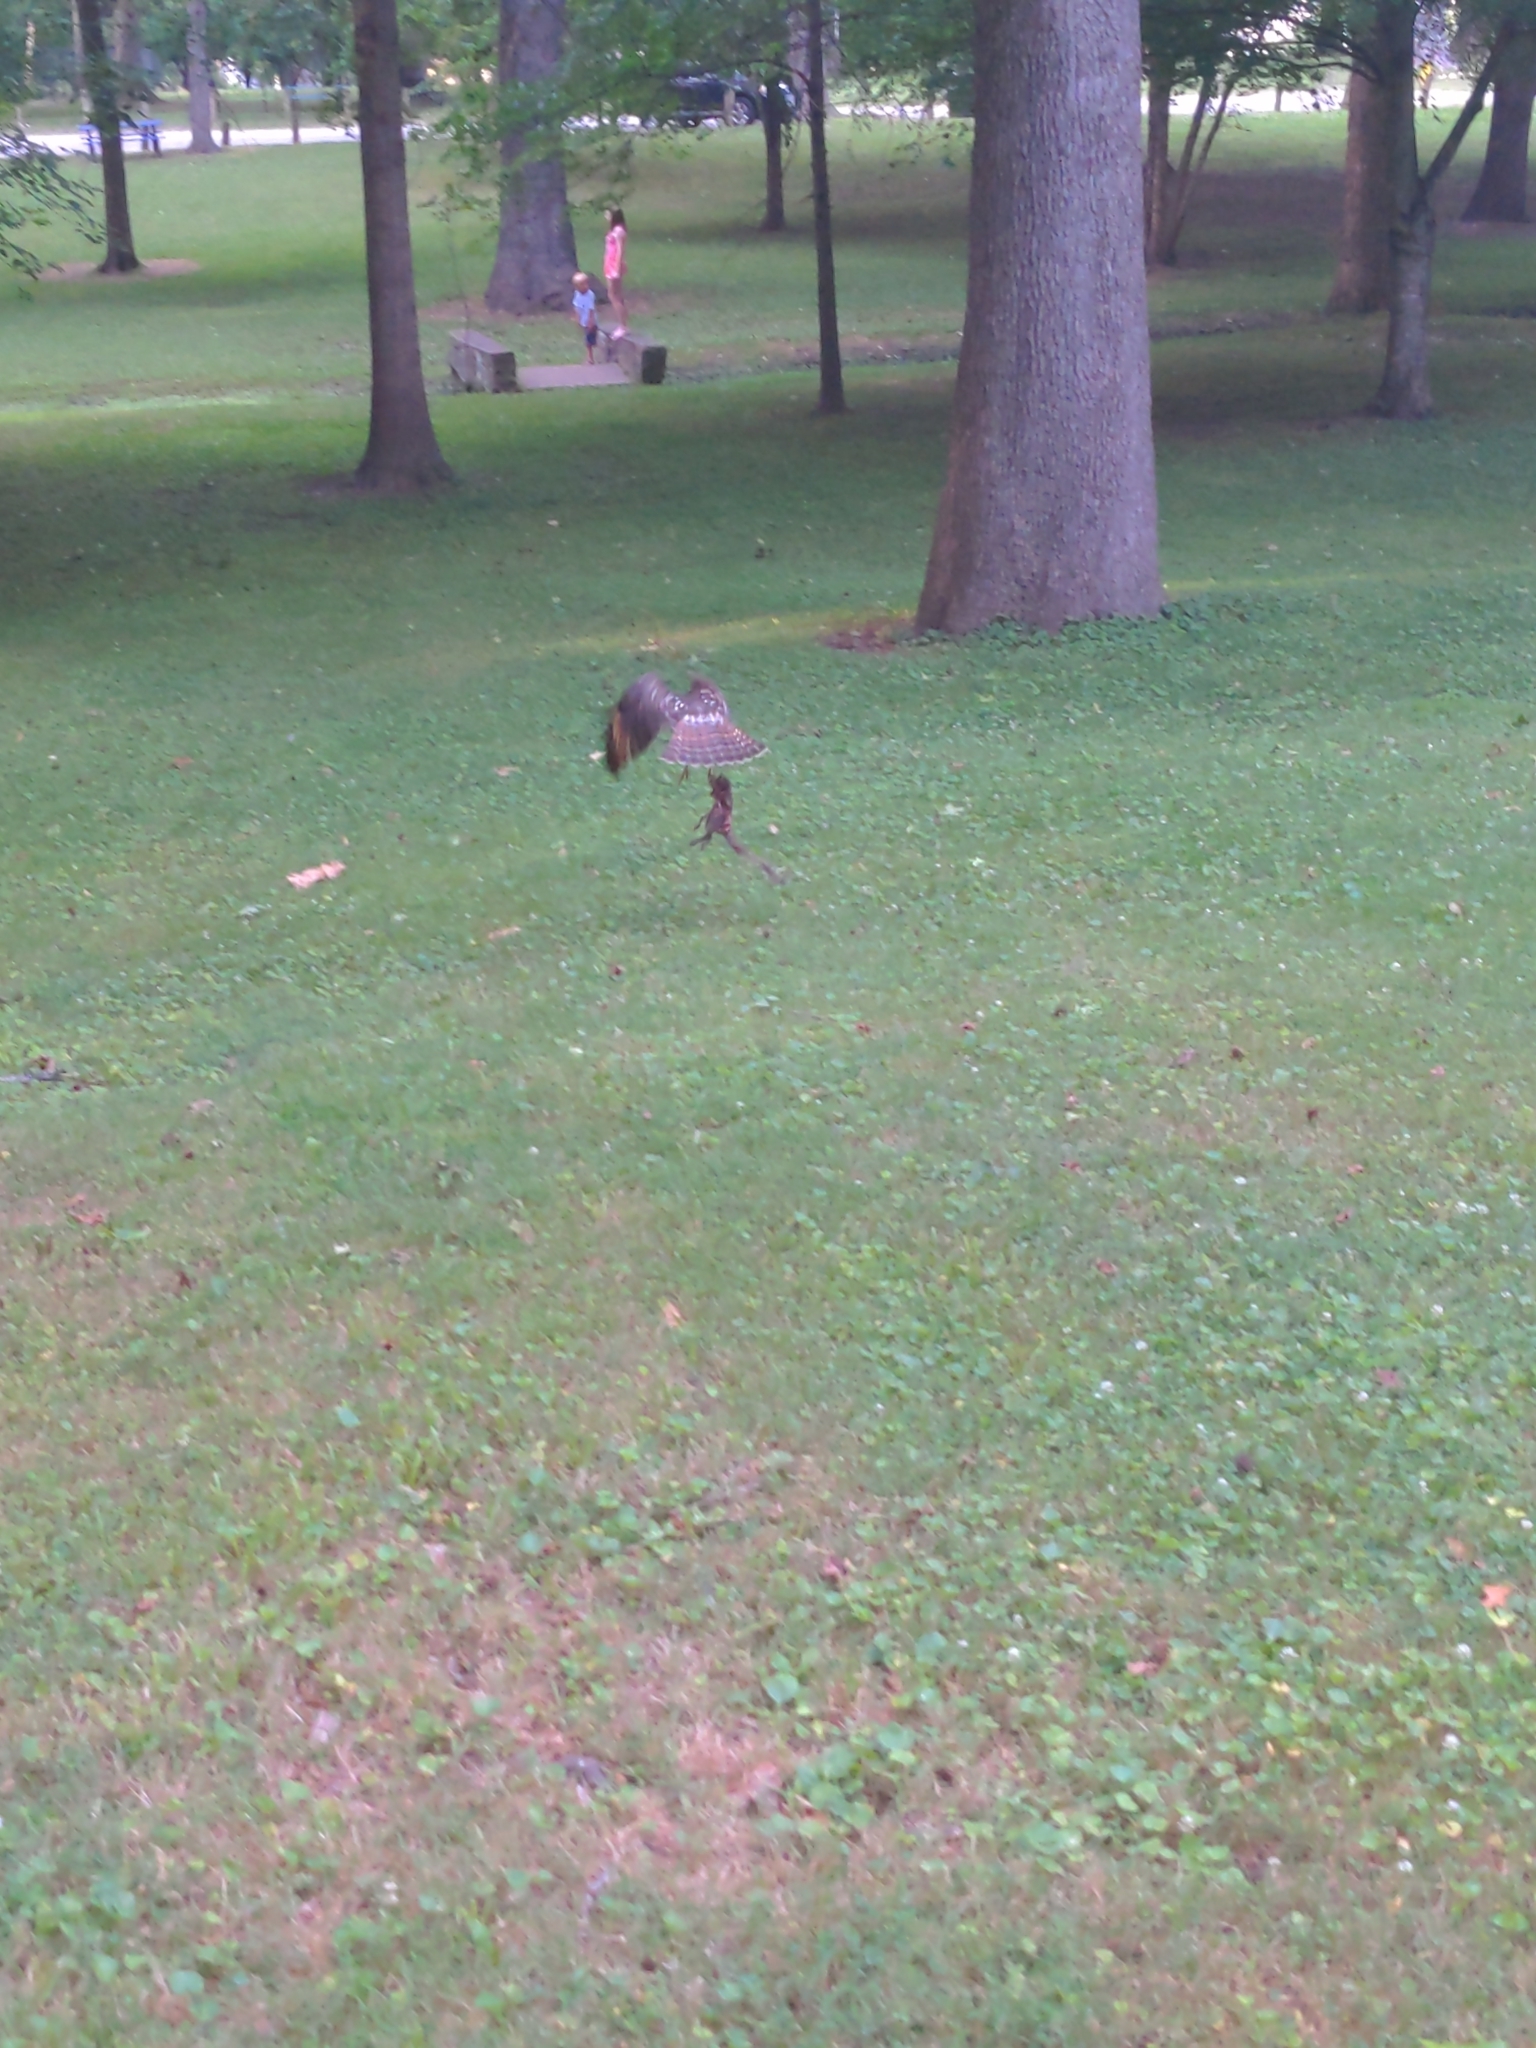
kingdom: Animalia
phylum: Chordata
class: Aves
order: Accipitriformes
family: Accipitridae
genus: Buteo
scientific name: Buteo jamaicensis
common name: Red-tailed hawk
